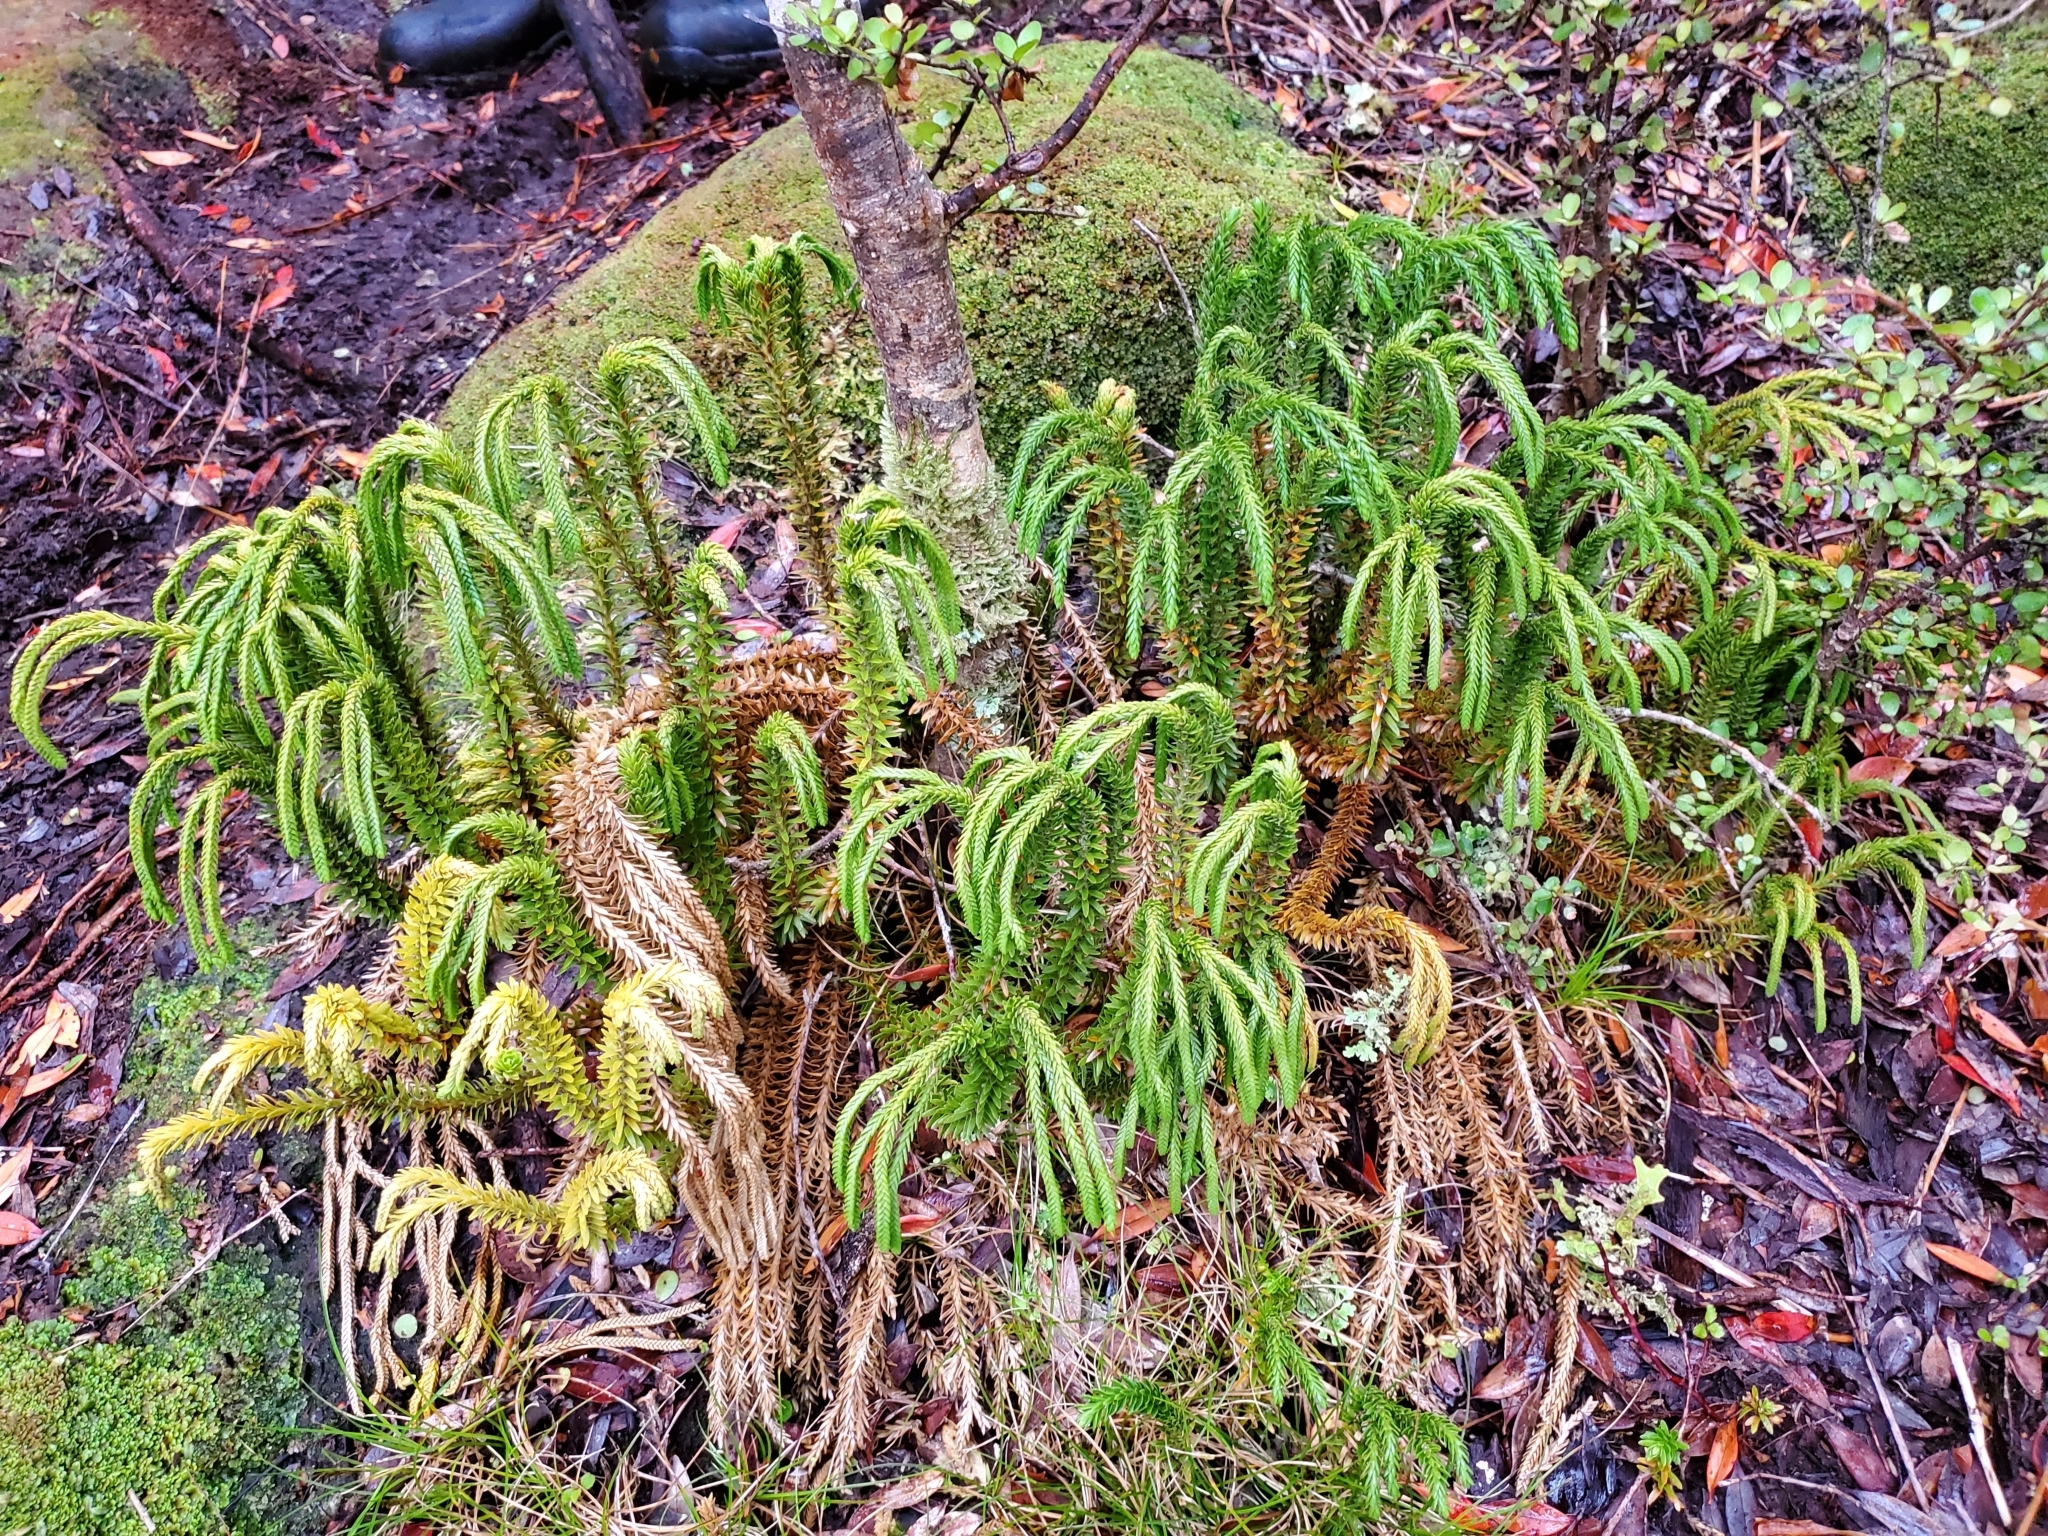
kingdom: Plantae
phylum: Tracheophyta
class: Lycopodiopsida
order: Lycopodiales
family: Lycopodiaceae
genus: Phlegmariurus
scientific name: Phlegmariurus varius
